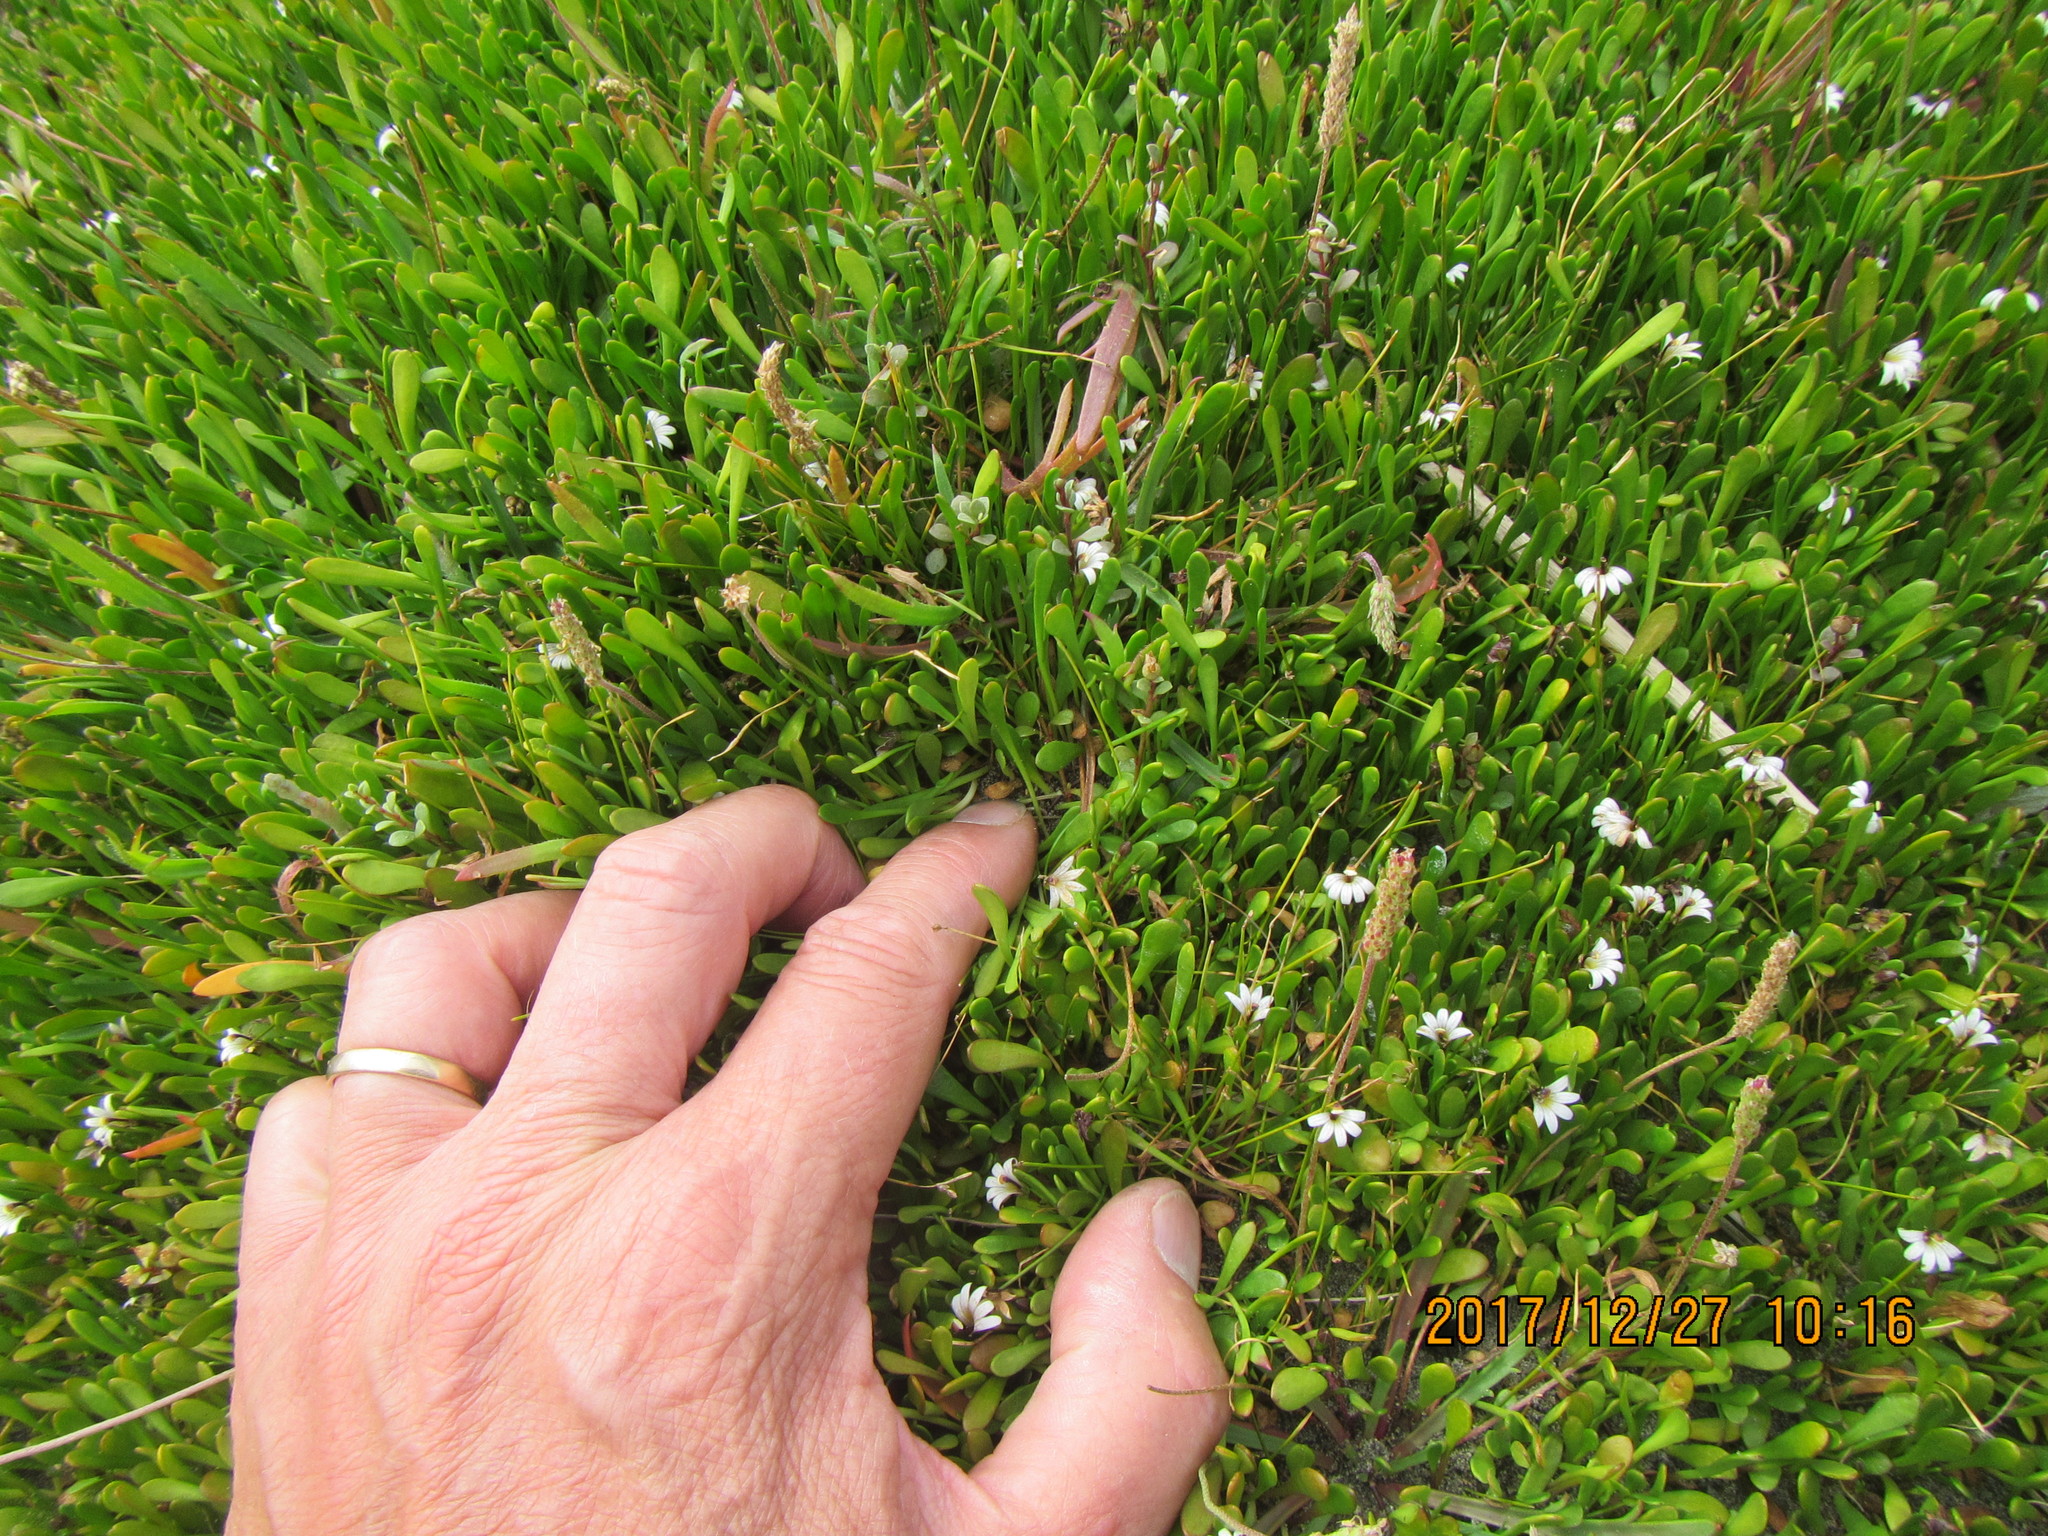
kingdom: Plantae
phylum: Tracheophyta
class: Magnoliopsida
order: Asterales
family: Goodeniaceae
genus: Goodenia
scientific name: Goodenia radicans
